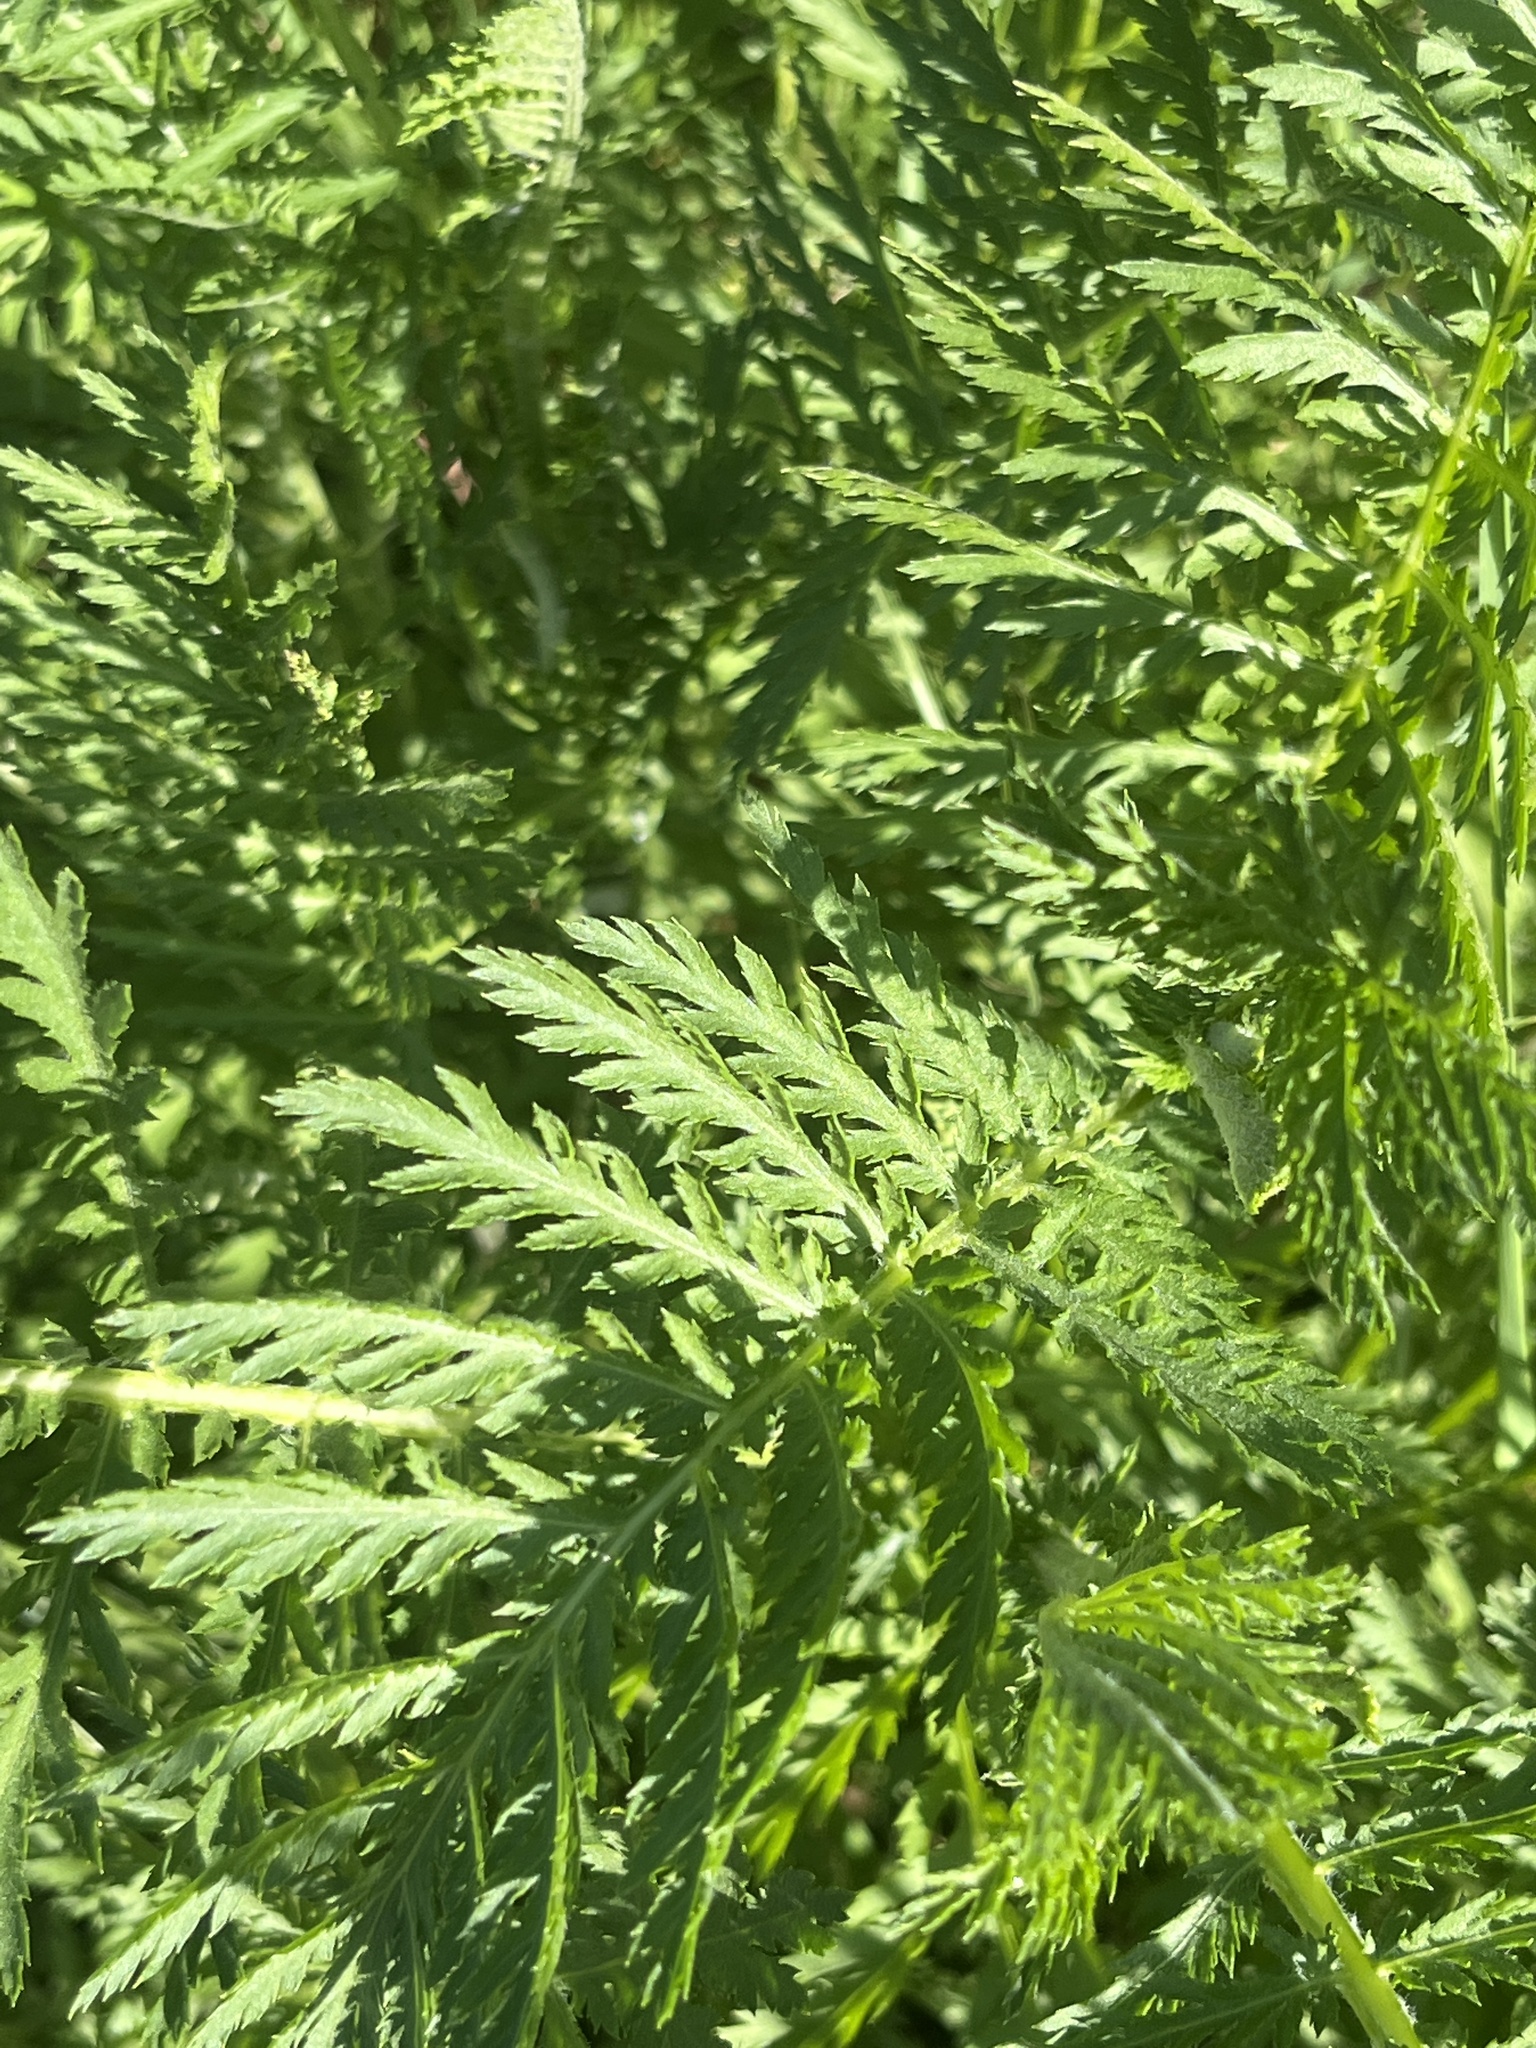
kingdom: Plantae
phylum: Tracheophyta
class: Magnoliopsida
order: Asterales
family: Asteraceae
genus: Tanacetum
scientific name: Tanacetum vulgare
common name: Common tansy
